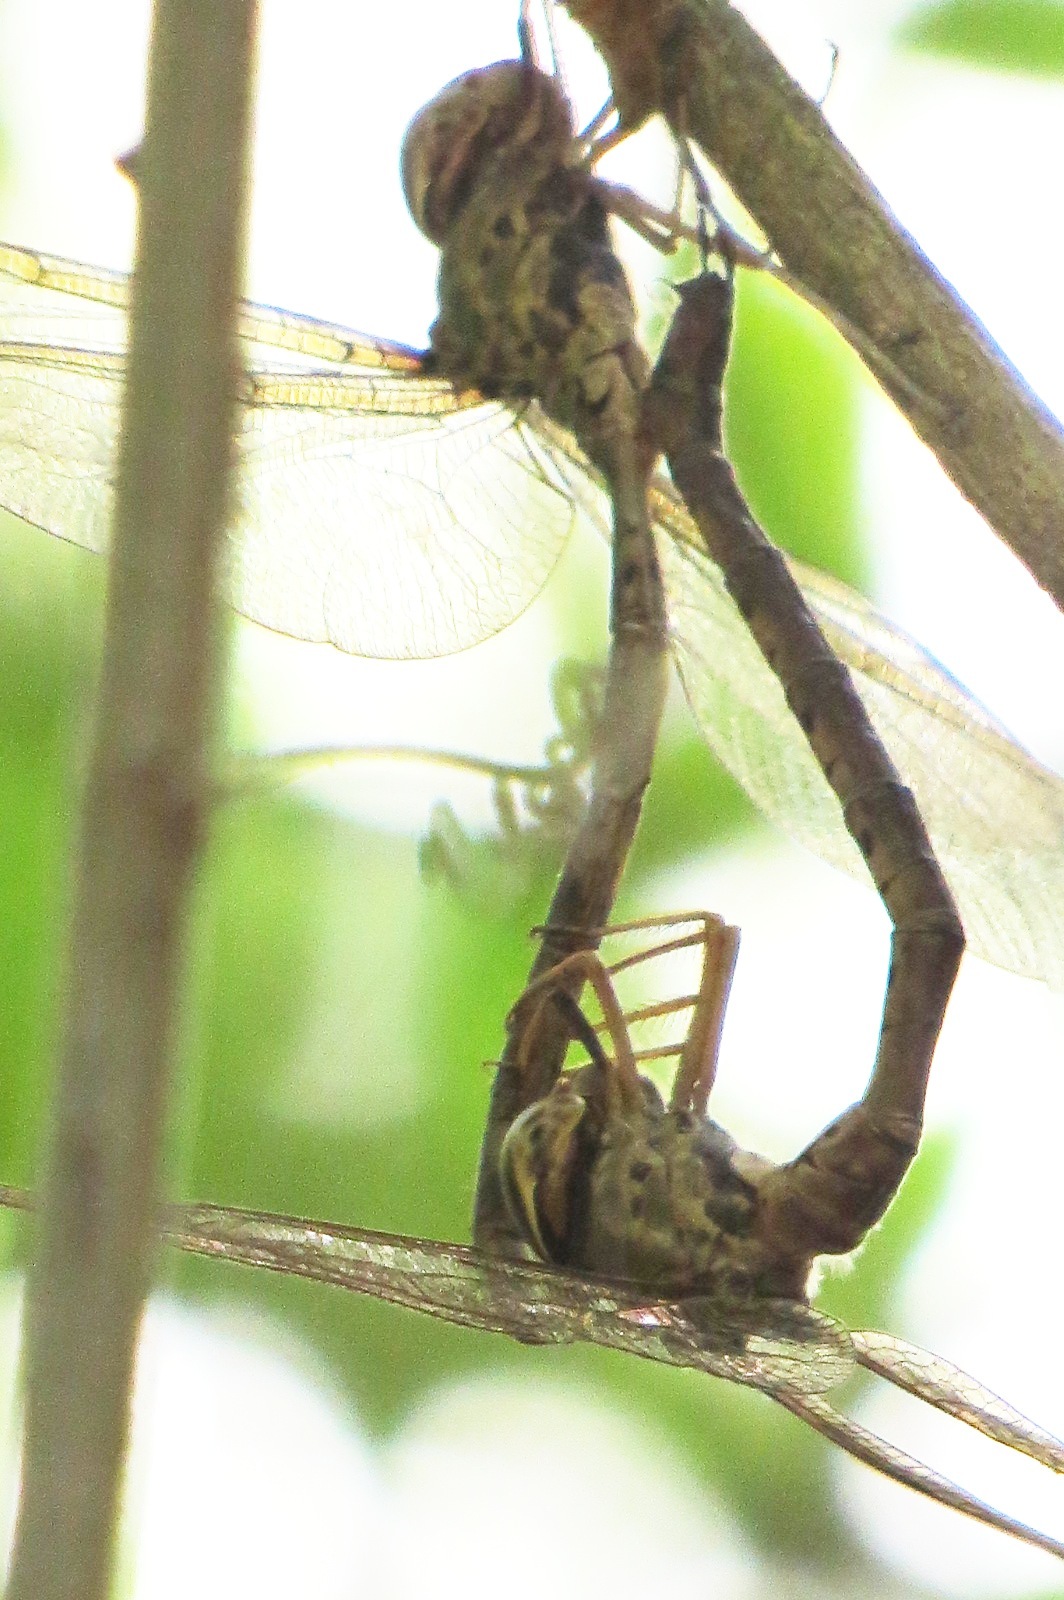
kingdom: Animalia
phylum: Arthropoda
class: Insecta
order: Odonata
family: Aeshnidae
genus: Gynacantha
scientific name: Gynacantha mexicana
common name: Bar-sided darner
